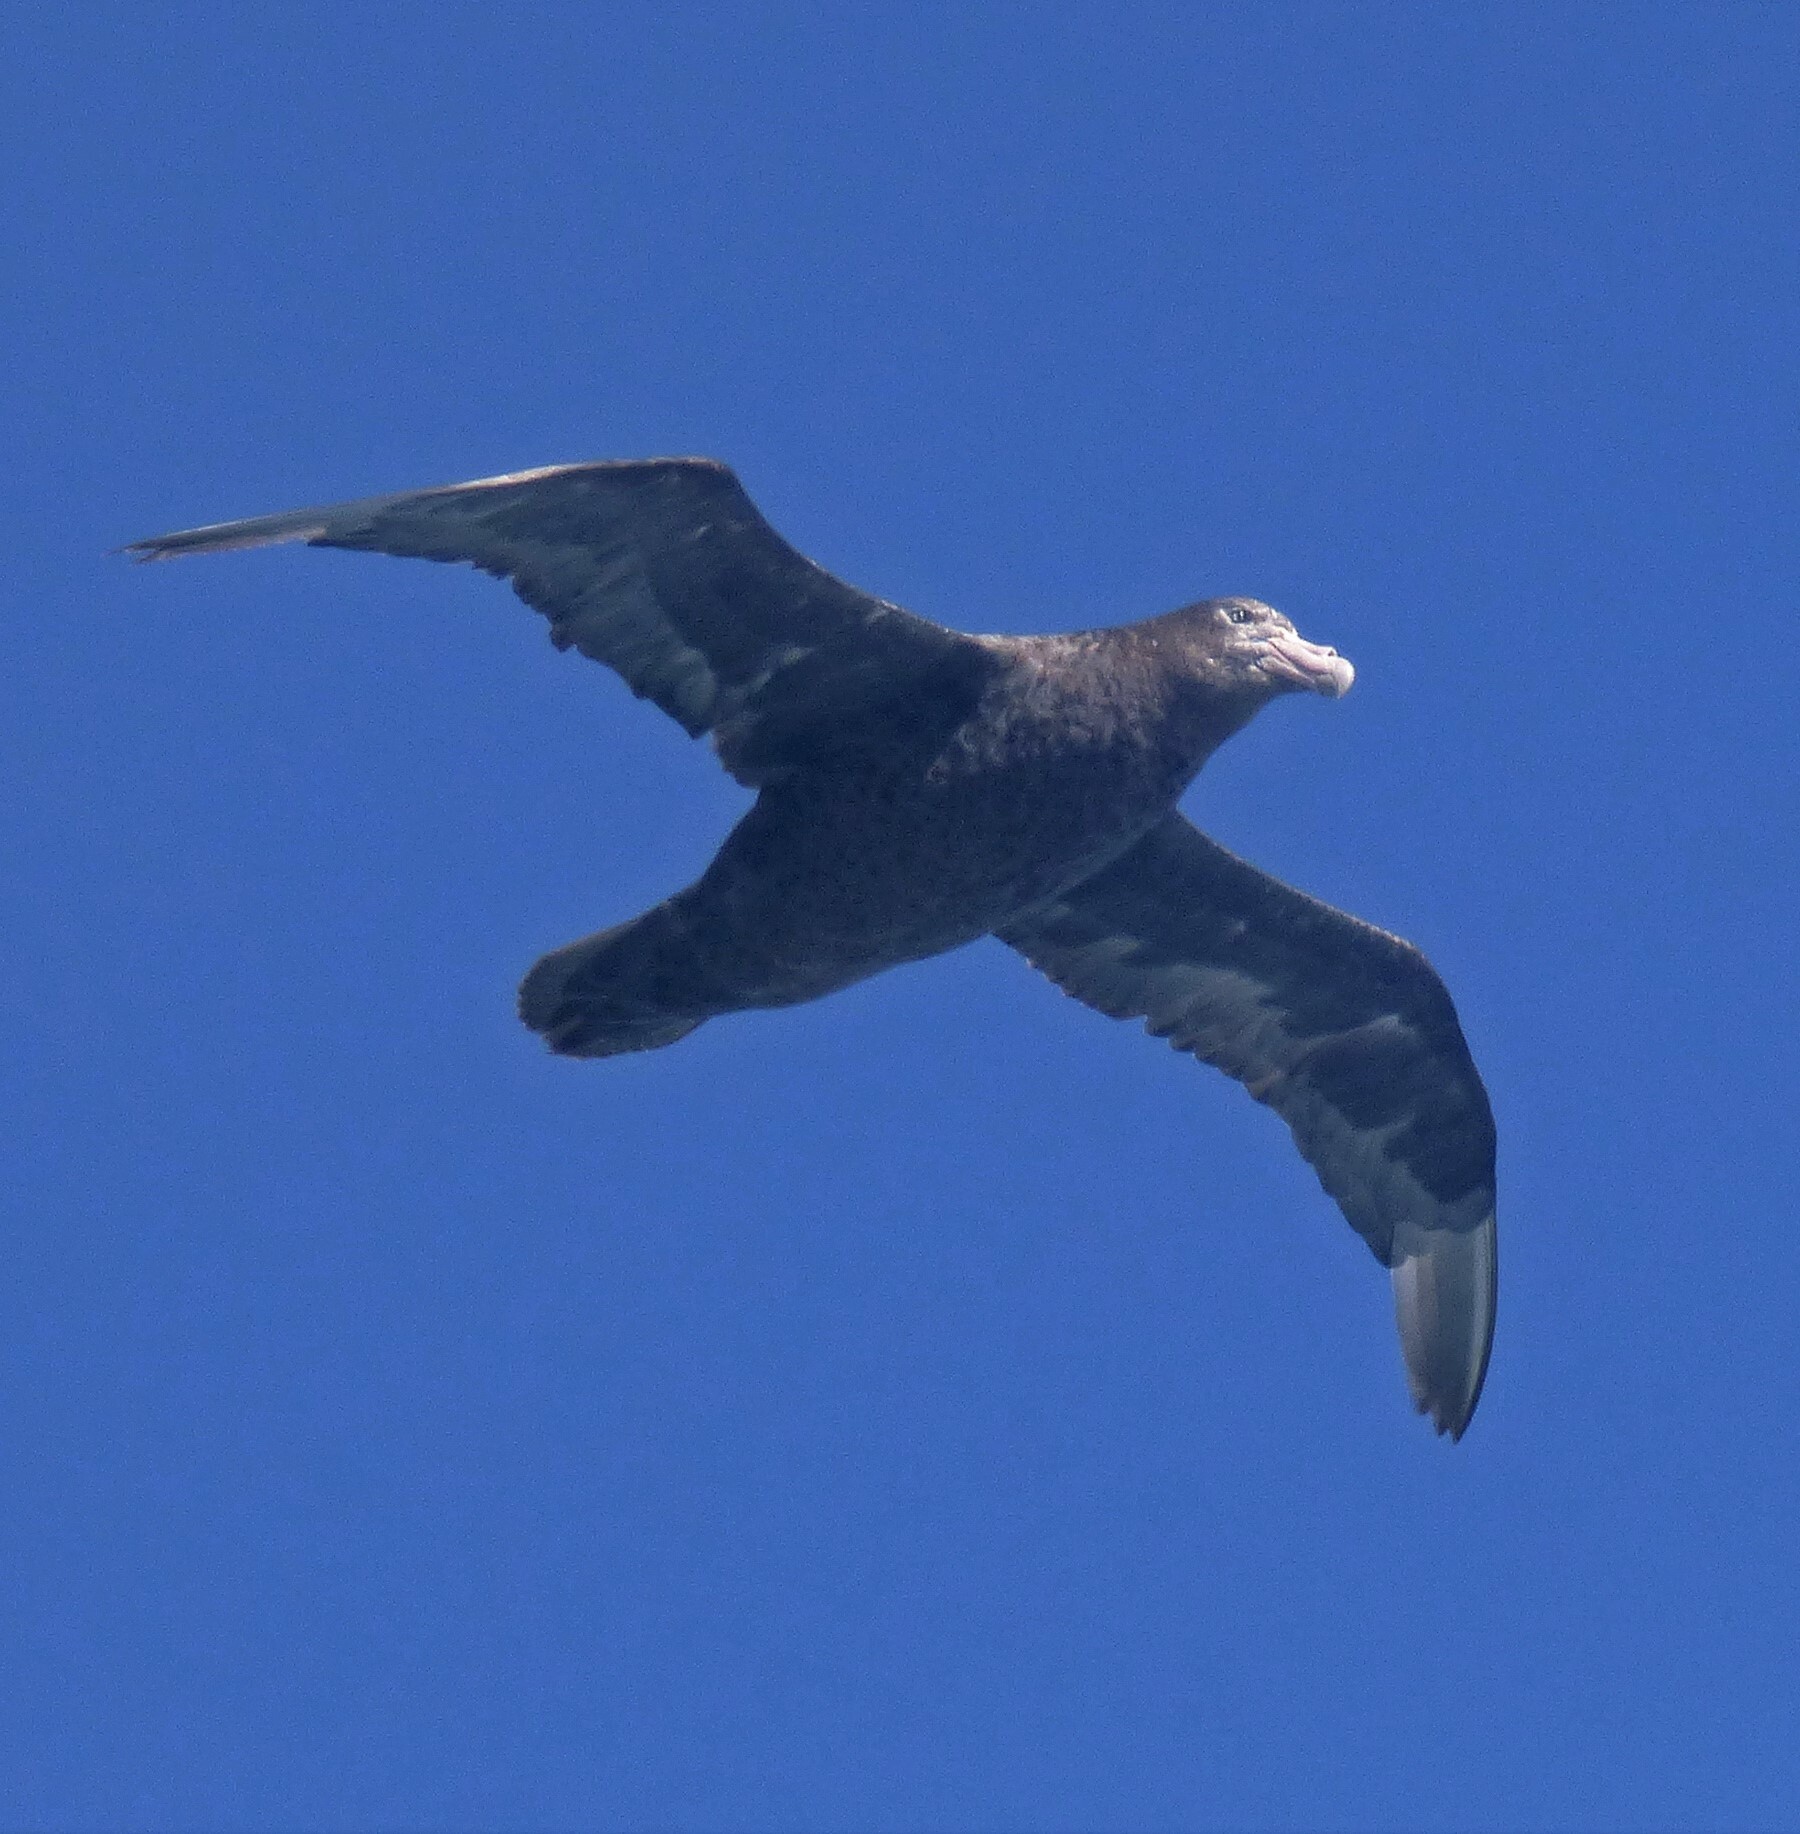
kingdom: Animalia
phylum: Chordata
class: Aves
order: Procellariiformes
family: Procellariidae
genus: Macronectes
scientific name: Macronectes giganteus
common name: Southern giant petrel
